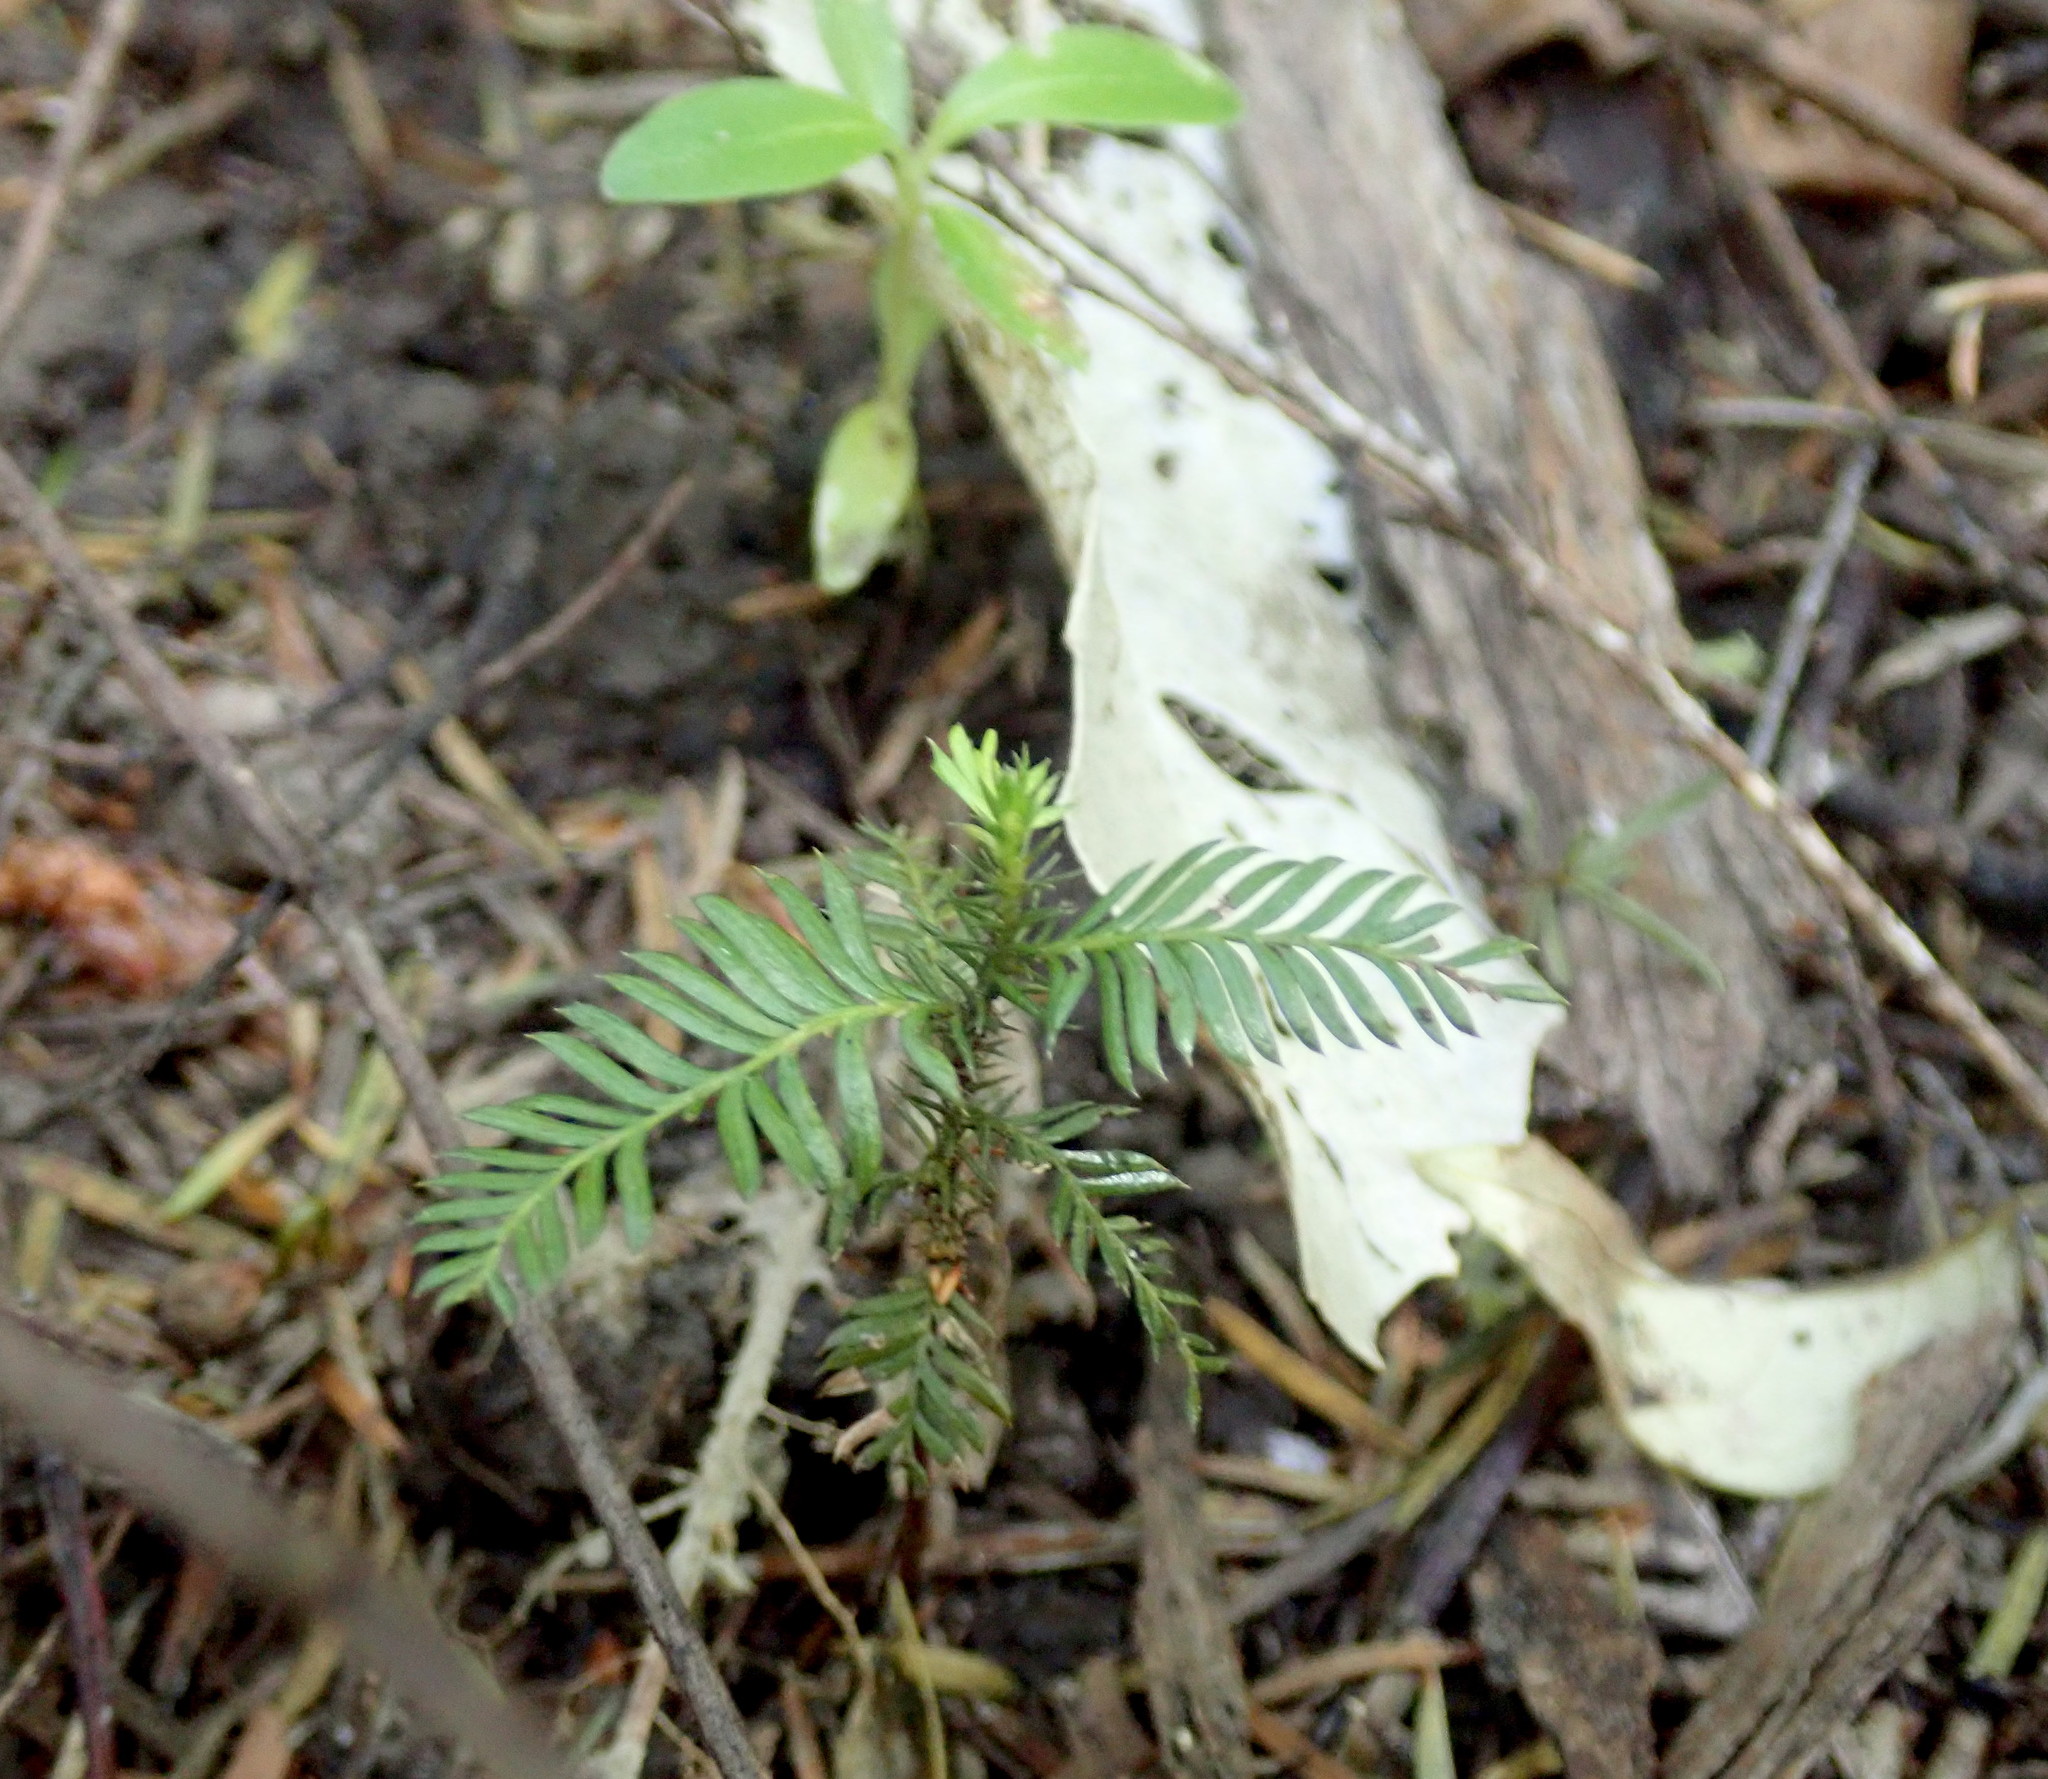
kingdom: Plantae
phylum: Tracheophyta
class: Pinopsida
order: Pinales
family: Podocarpaceae
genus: Dacrycarpus
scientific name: Dacrycarpus dacrydioides
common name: White pine
